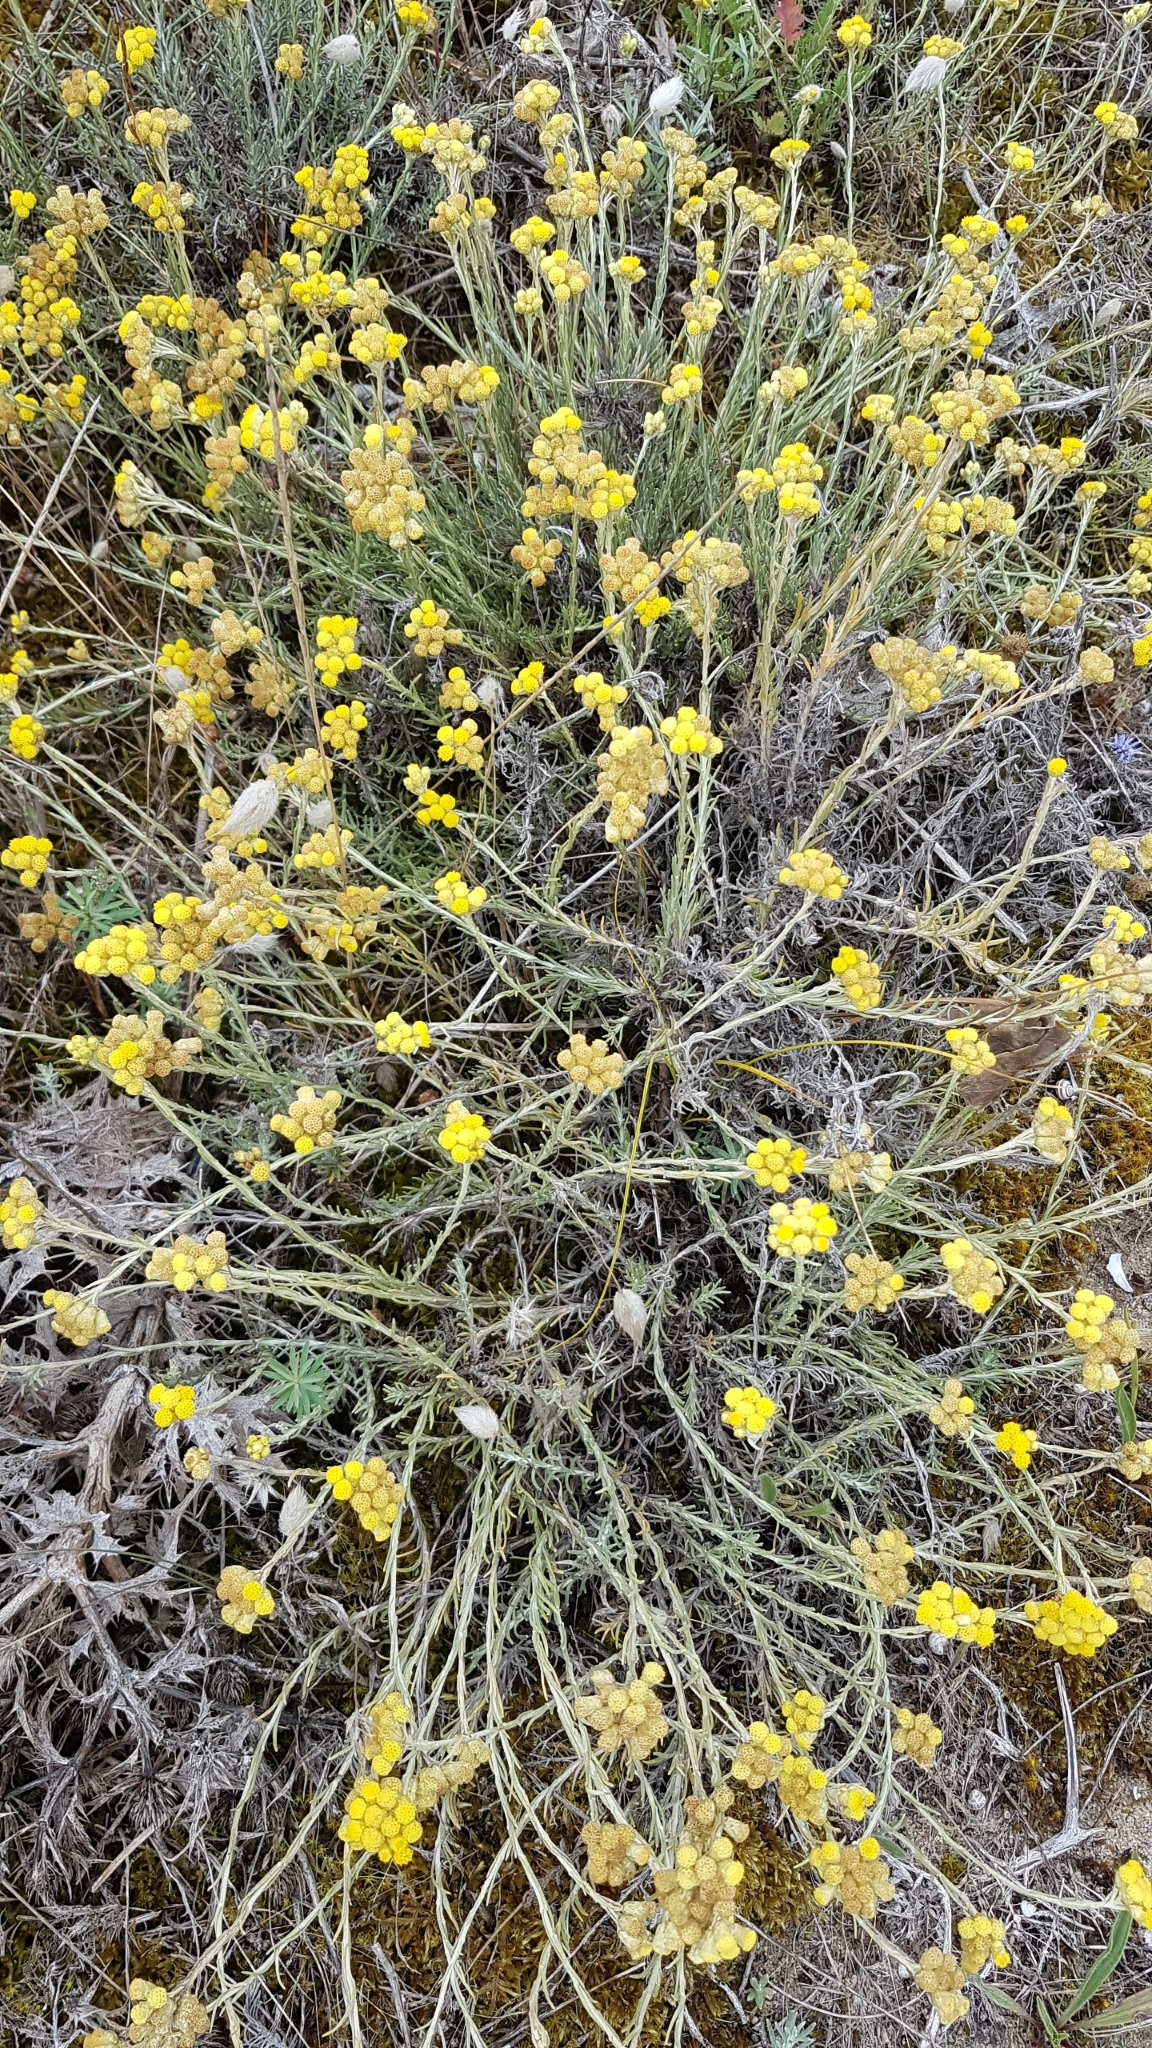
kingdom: Plantae
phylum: Tracheophyta
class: Magnoliopsida
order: Asterales
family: Asteraceae
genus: Helichrysum
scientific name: Helichrysum stoechas
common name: Goldilocks
